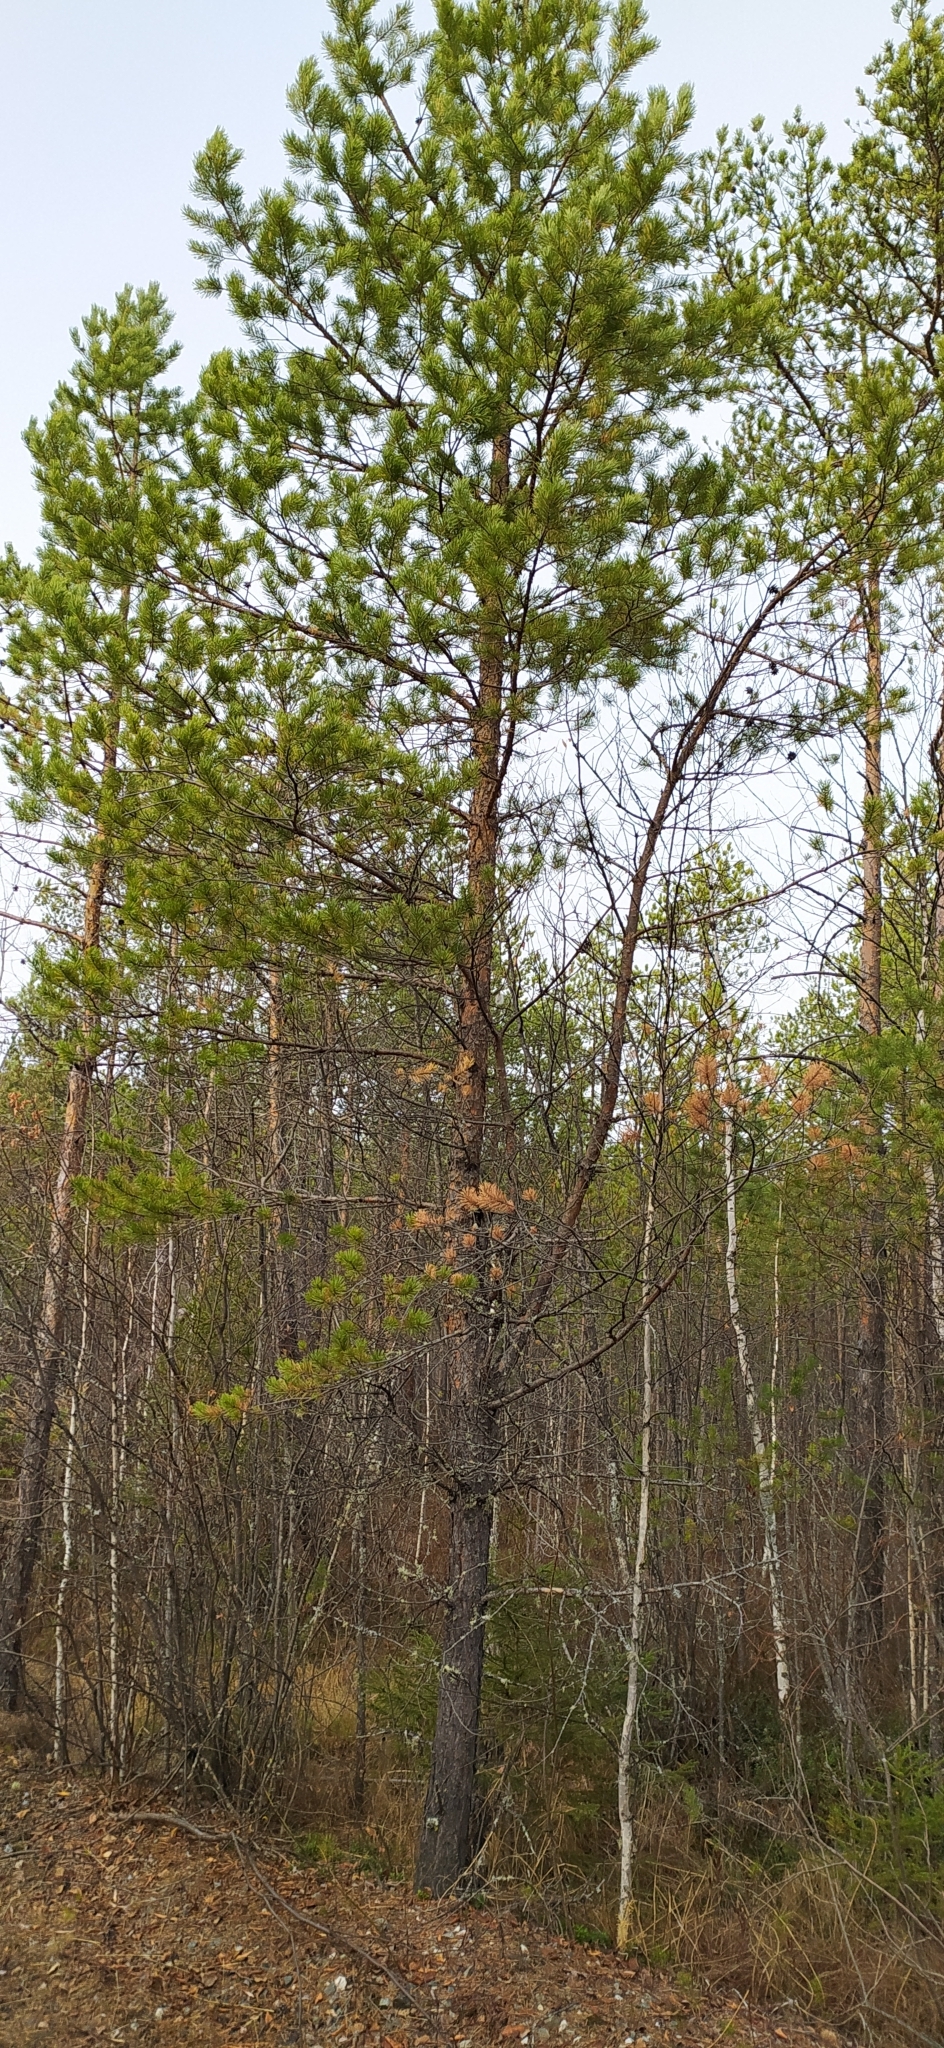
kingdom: Plantae
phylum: Tracheophyta
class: Pinopsida
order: Pinales
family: Pinaceae
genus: Pinus
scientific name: Pinus sylvestris
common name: Scots pine
